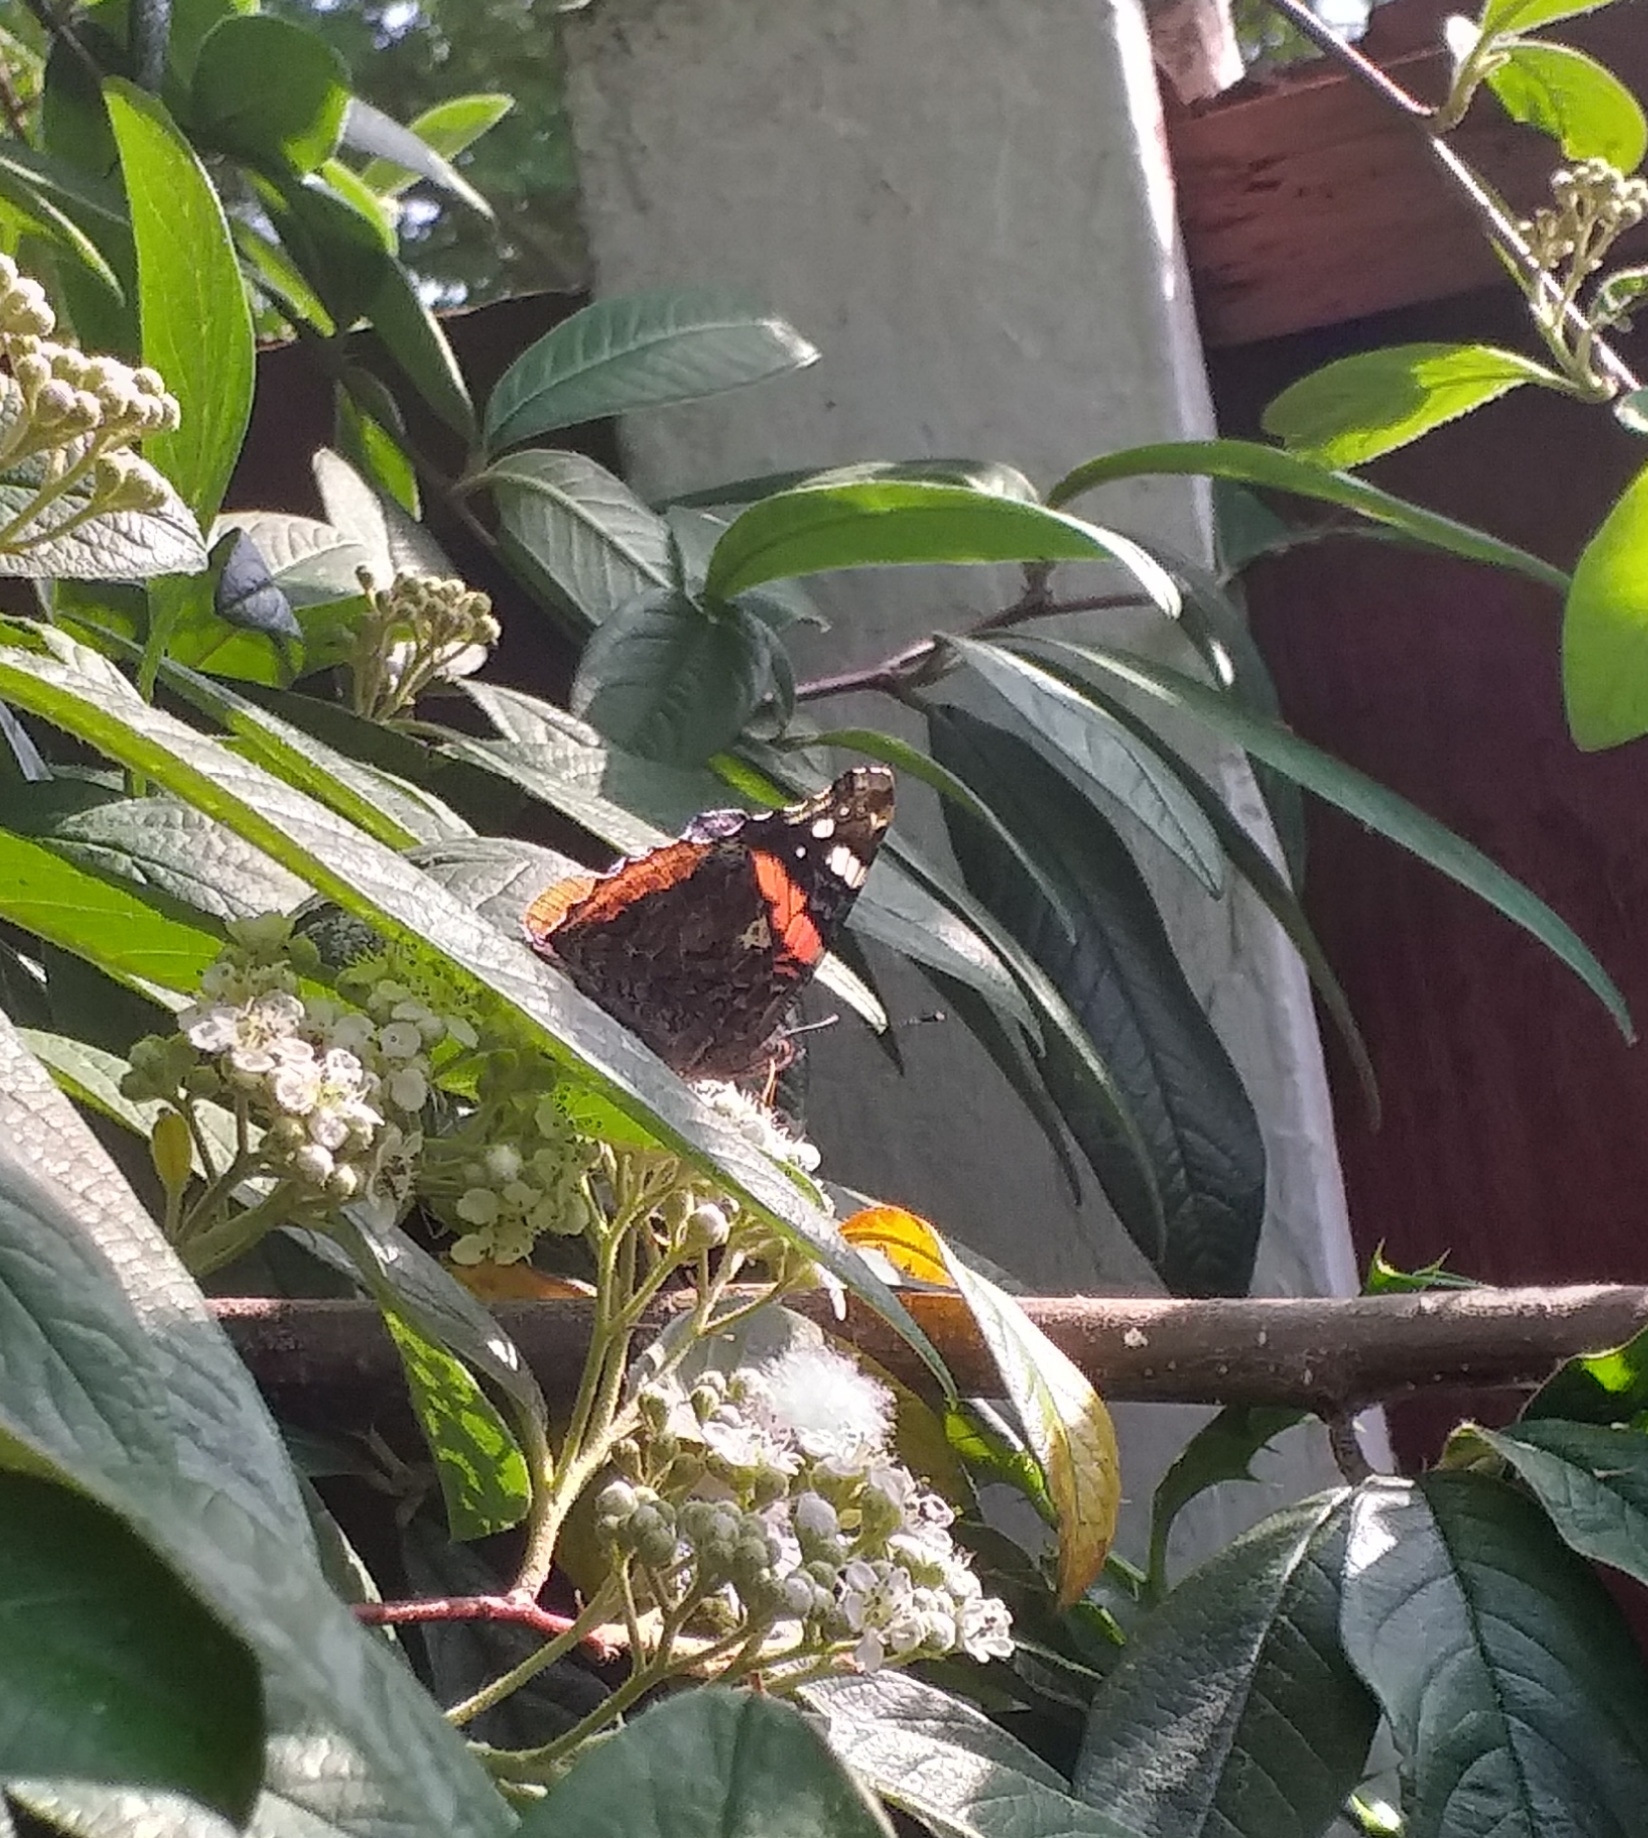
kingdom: Animalia
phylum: Arthropoda
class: Insecta
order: Lepidoptera
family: Nymphalidae
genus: Vanessa
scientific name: Vanessa atalanta
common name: Red admiral
